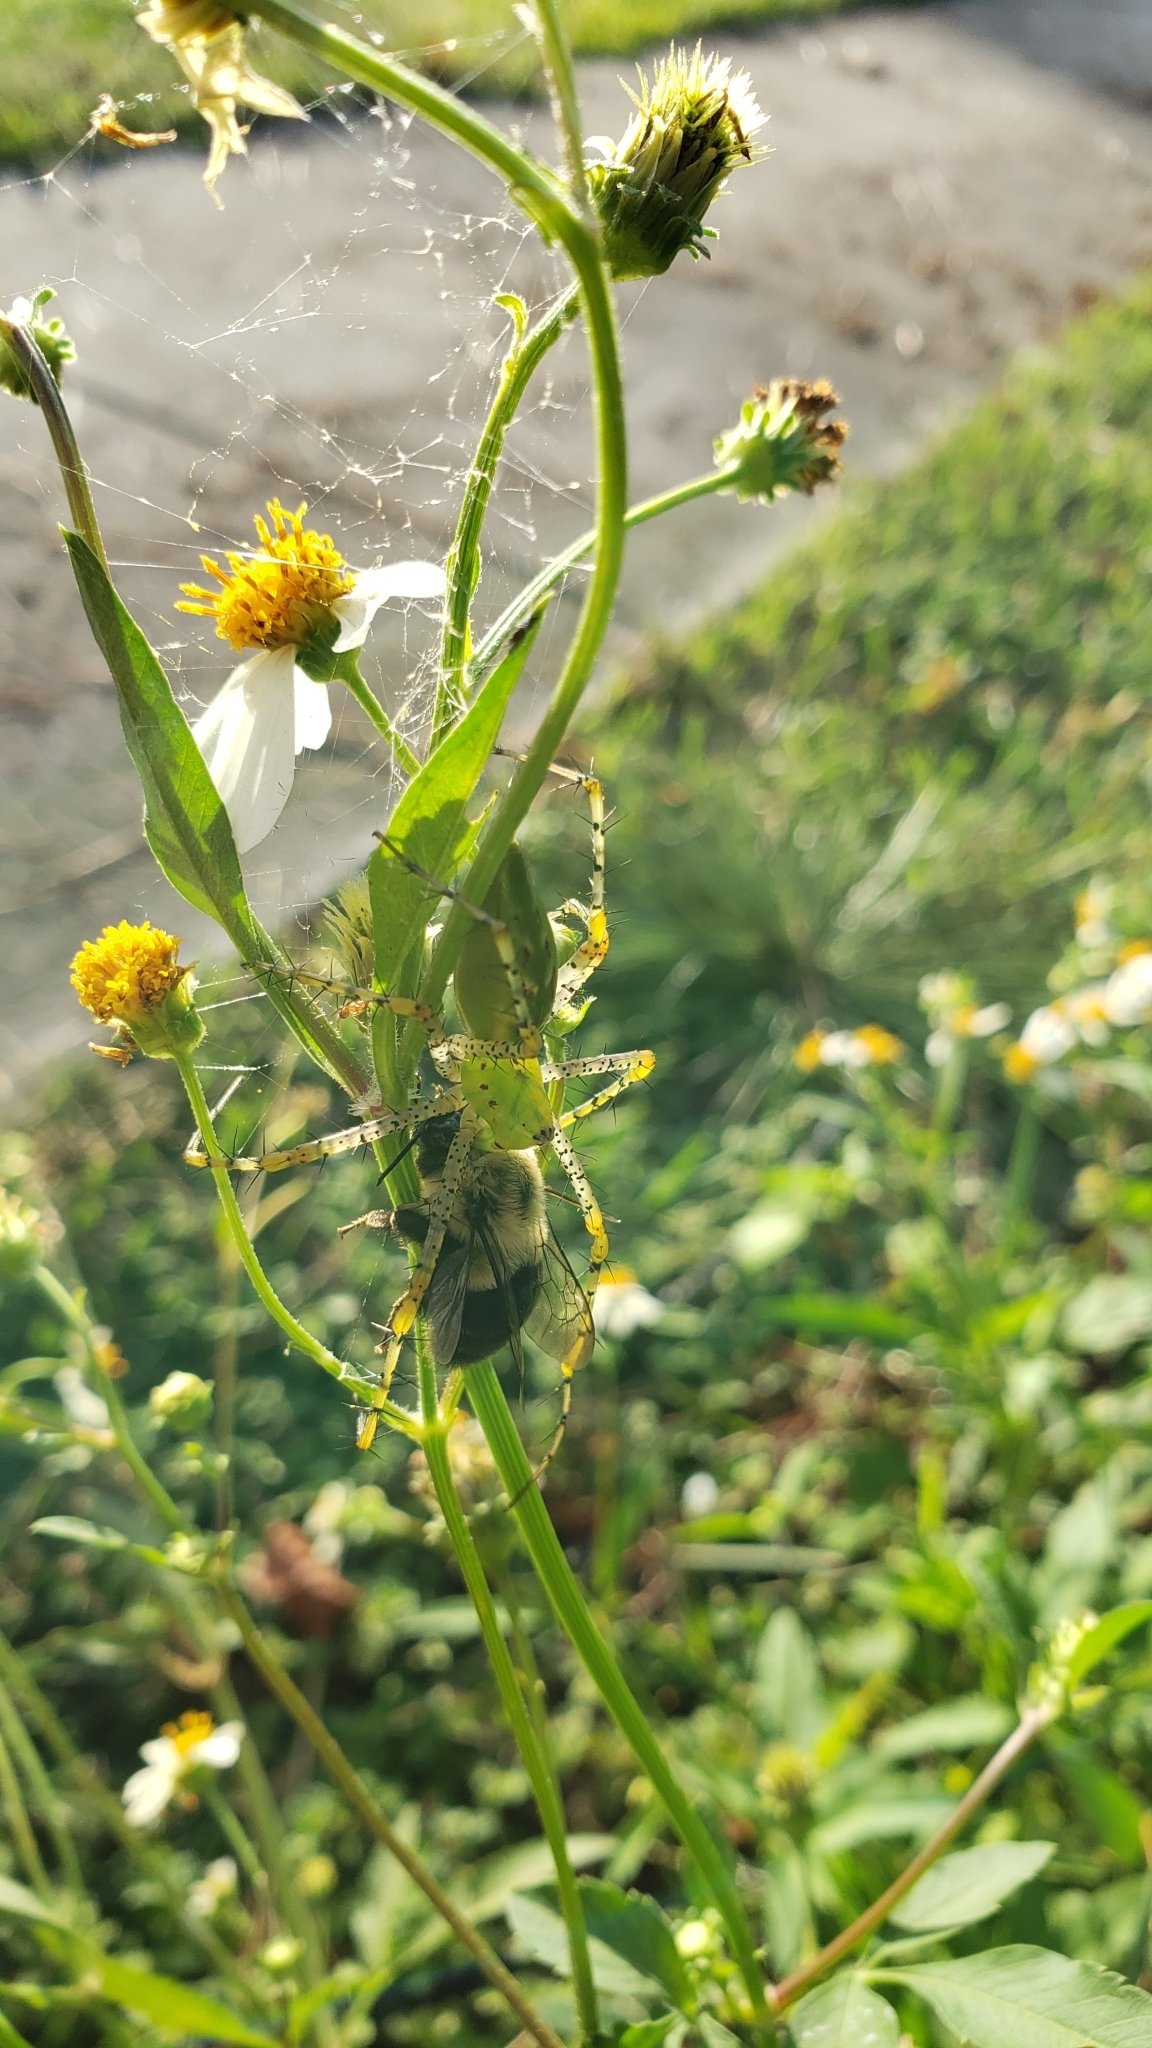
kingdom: Animalia
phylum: Arthropoda
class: Arachnida
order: Araneae
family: Oxyopidae
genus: Peucetia
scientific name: Peucetia viridans
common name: Lynx spiders
